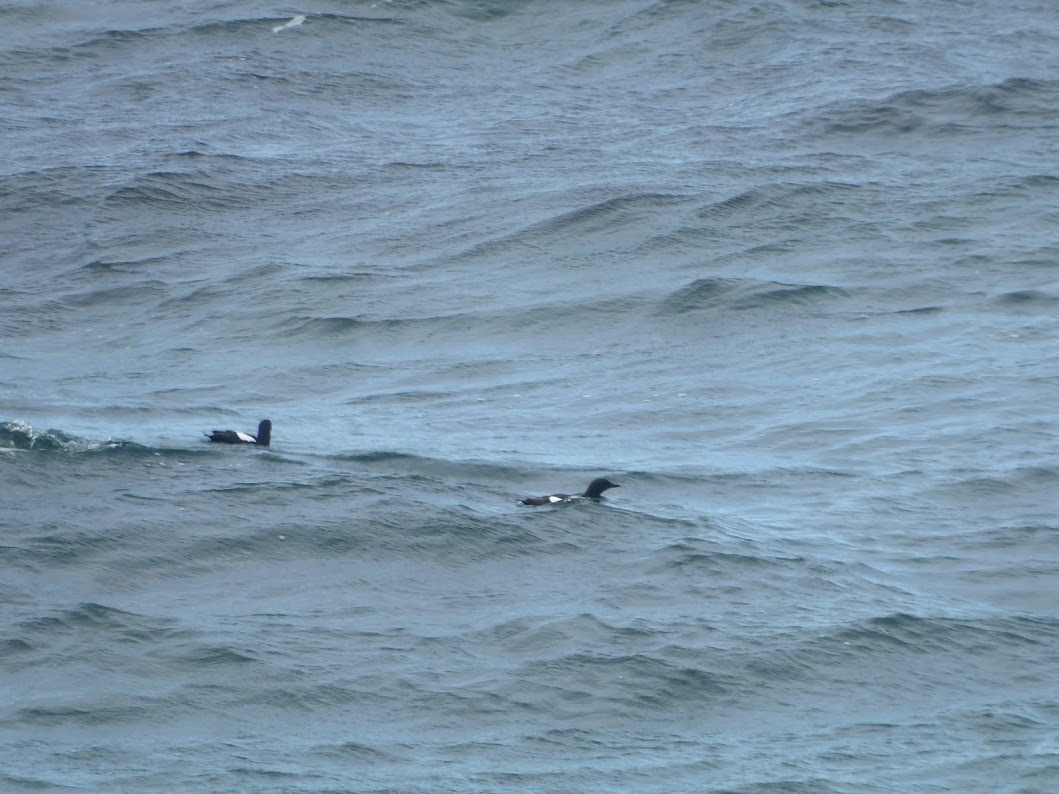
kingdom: Animalia
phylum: Chordata
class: Aves
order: Charadriiformes
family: Alcidae
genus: Cepphus
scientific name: Cepphus grylle
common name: Black guillemot
